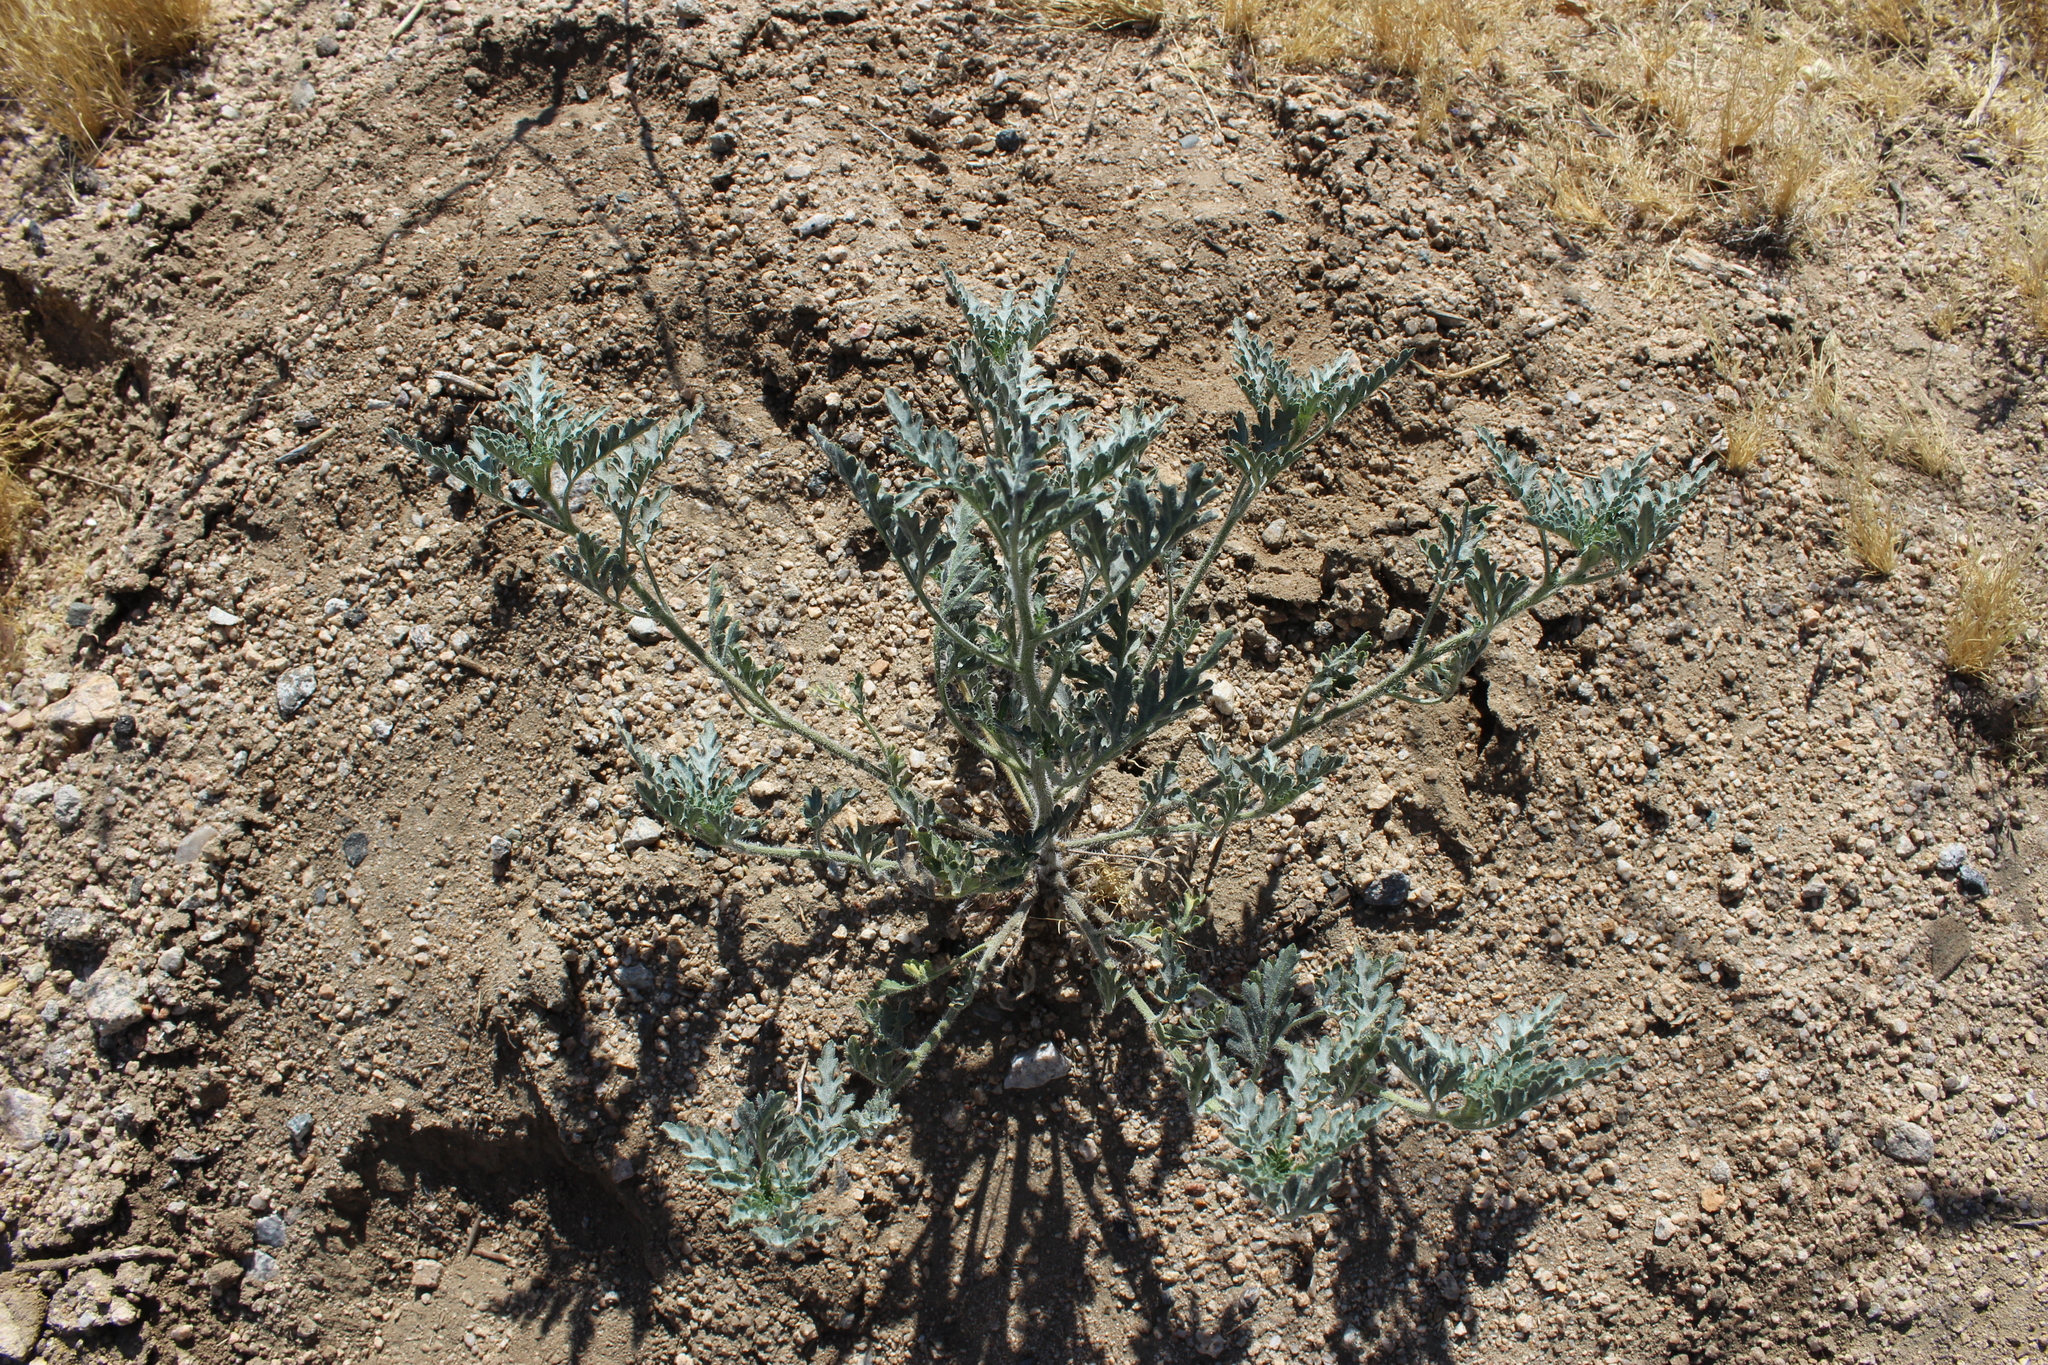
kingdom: Plantae
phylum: Tracheophyta
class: Magnoliopsida
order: Asterales
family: Asteraceae
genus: Ambrosia
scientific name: Ambrosia acanthicarpa
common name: Hooker's bur ragweed
